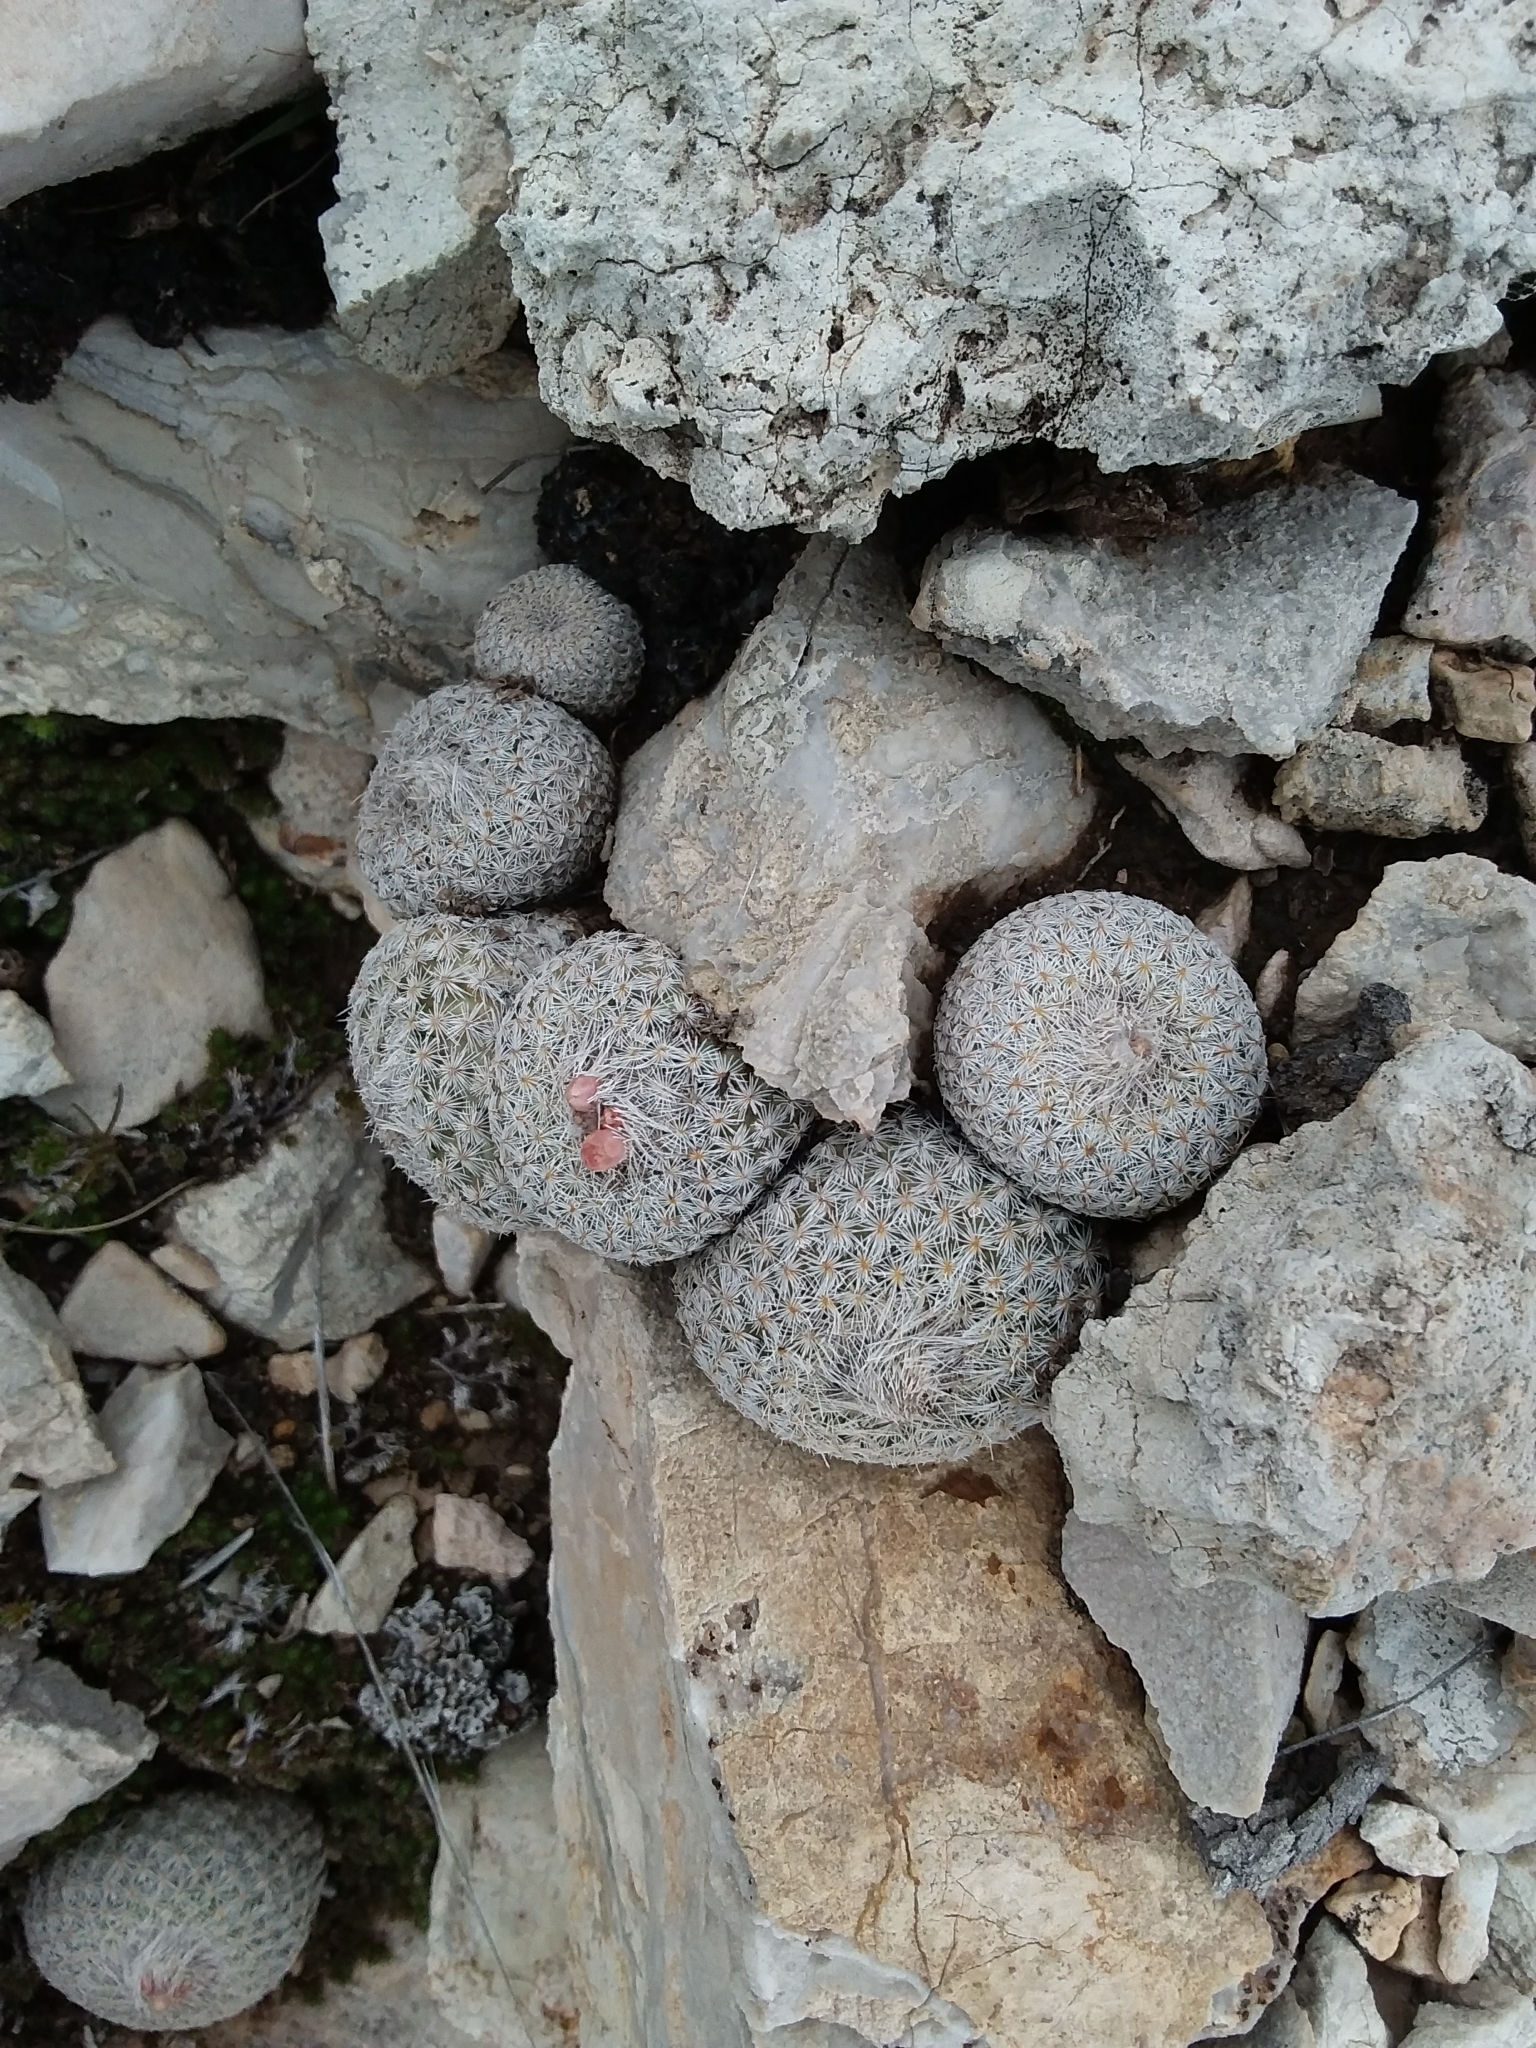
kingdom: Plantae
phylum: Tracheophyta
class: Magnoliopsida
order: Caryophyllales
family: Cactaceae
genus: Epithelantha
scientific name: Epithelantha micromeris
